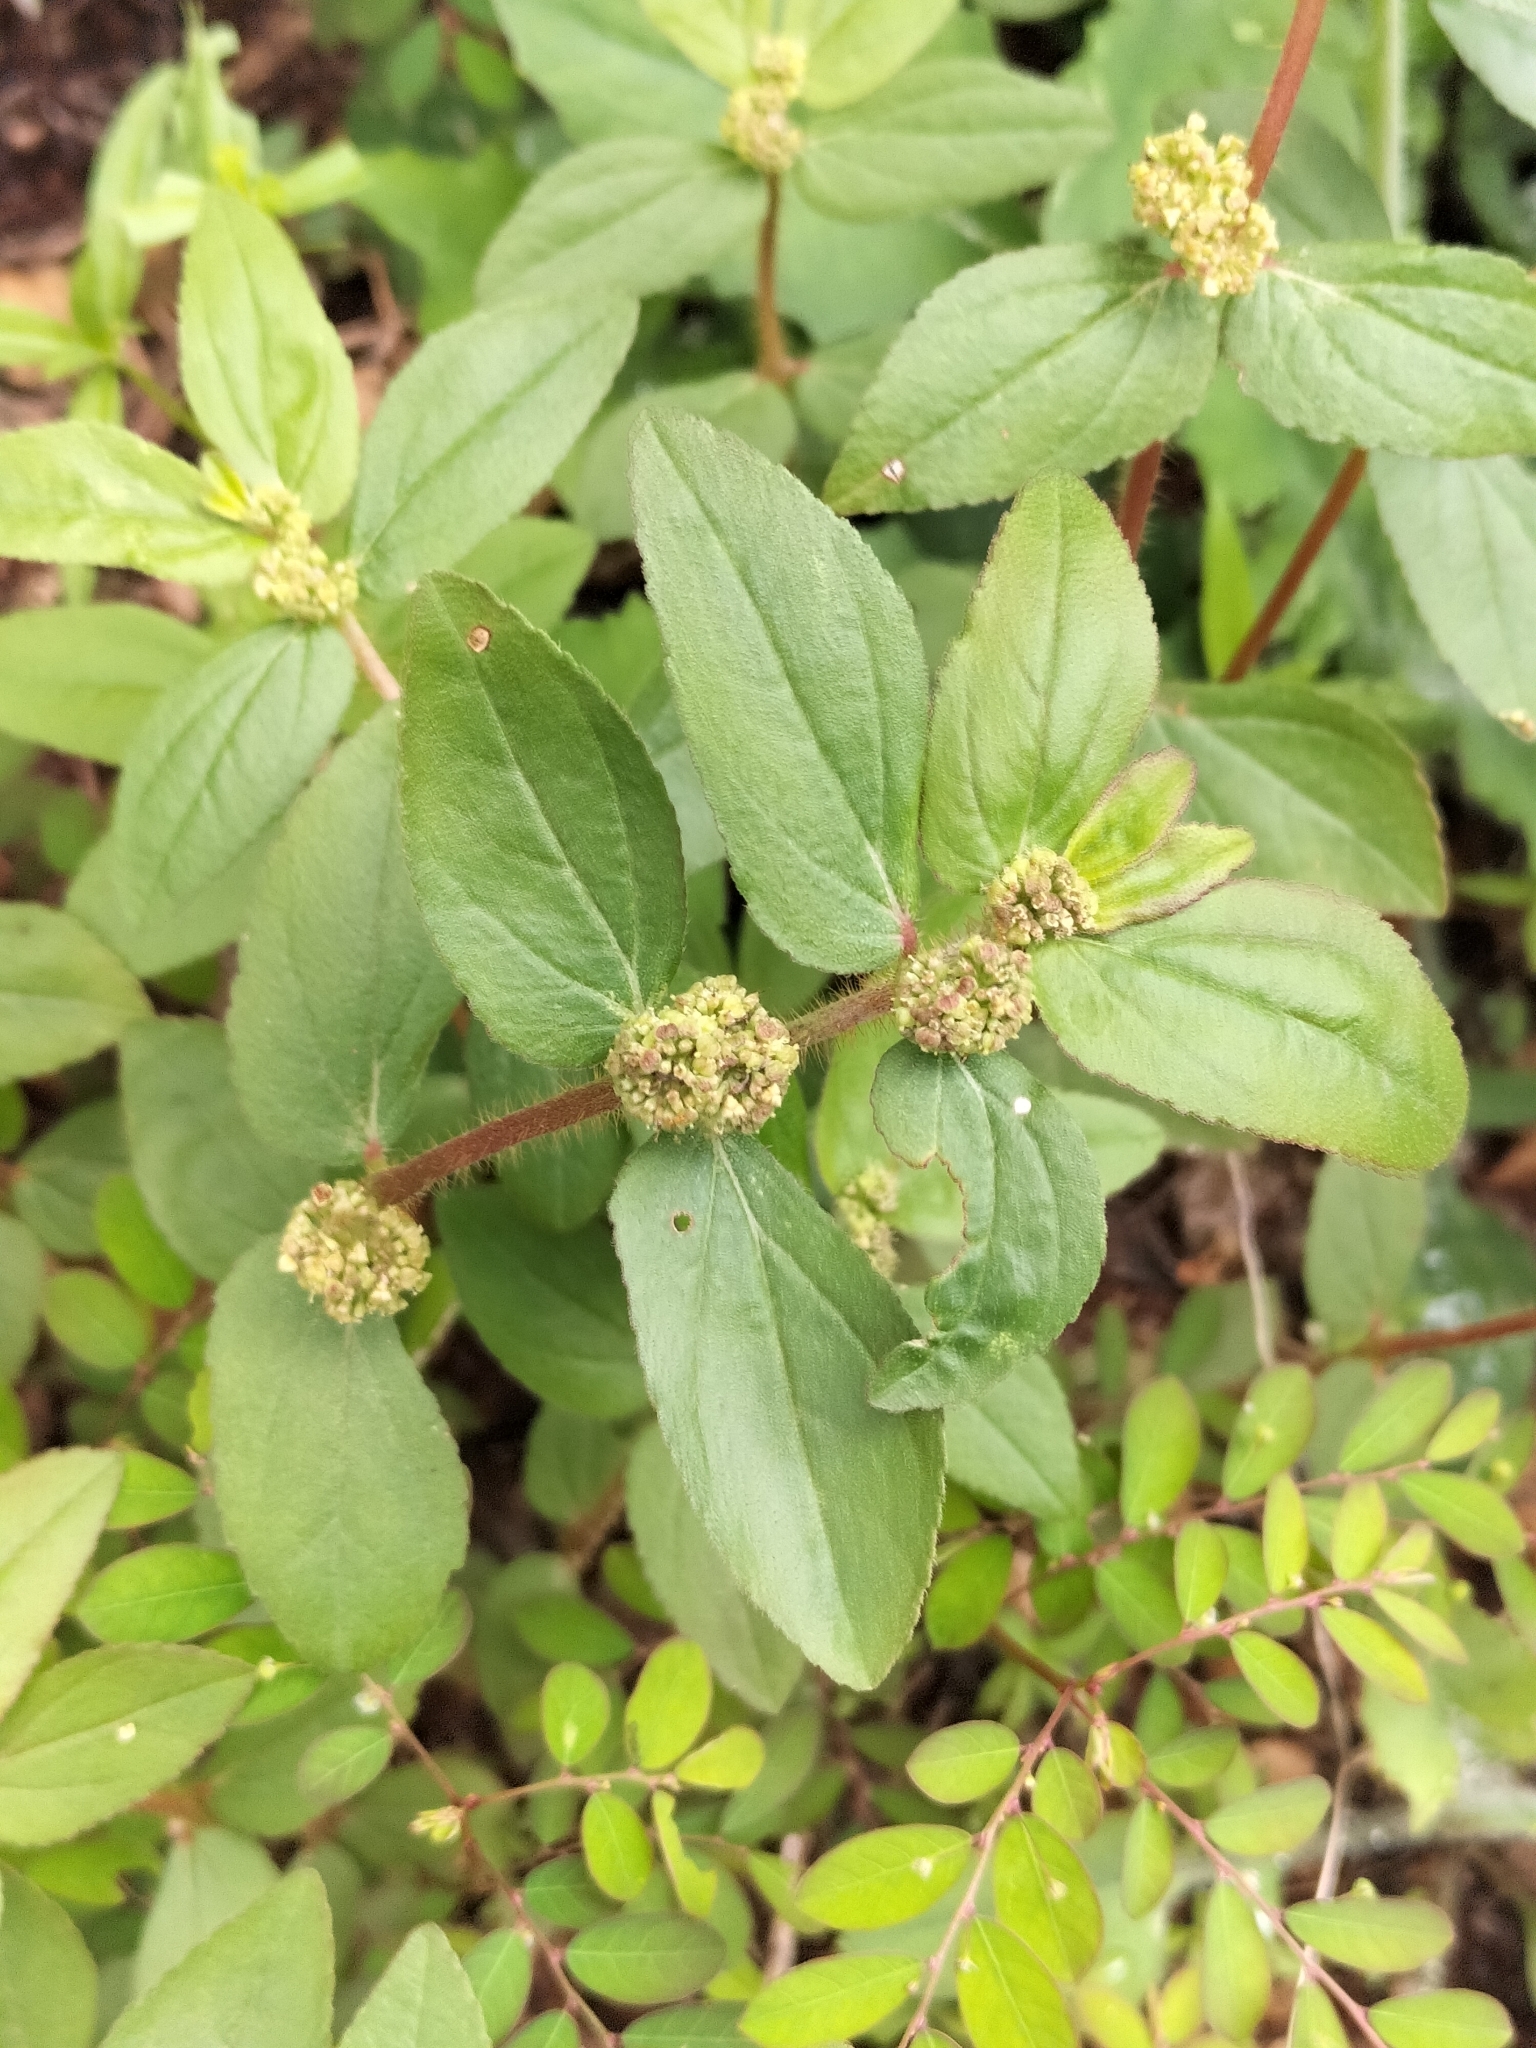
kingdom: Plantae
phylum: Tracheophyta
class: Magnoliopsida
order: Malpighiales
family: Euphorbiaceae
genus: Euphorbia
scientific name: Euphorbia hirta
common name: Pillpod sandmat
